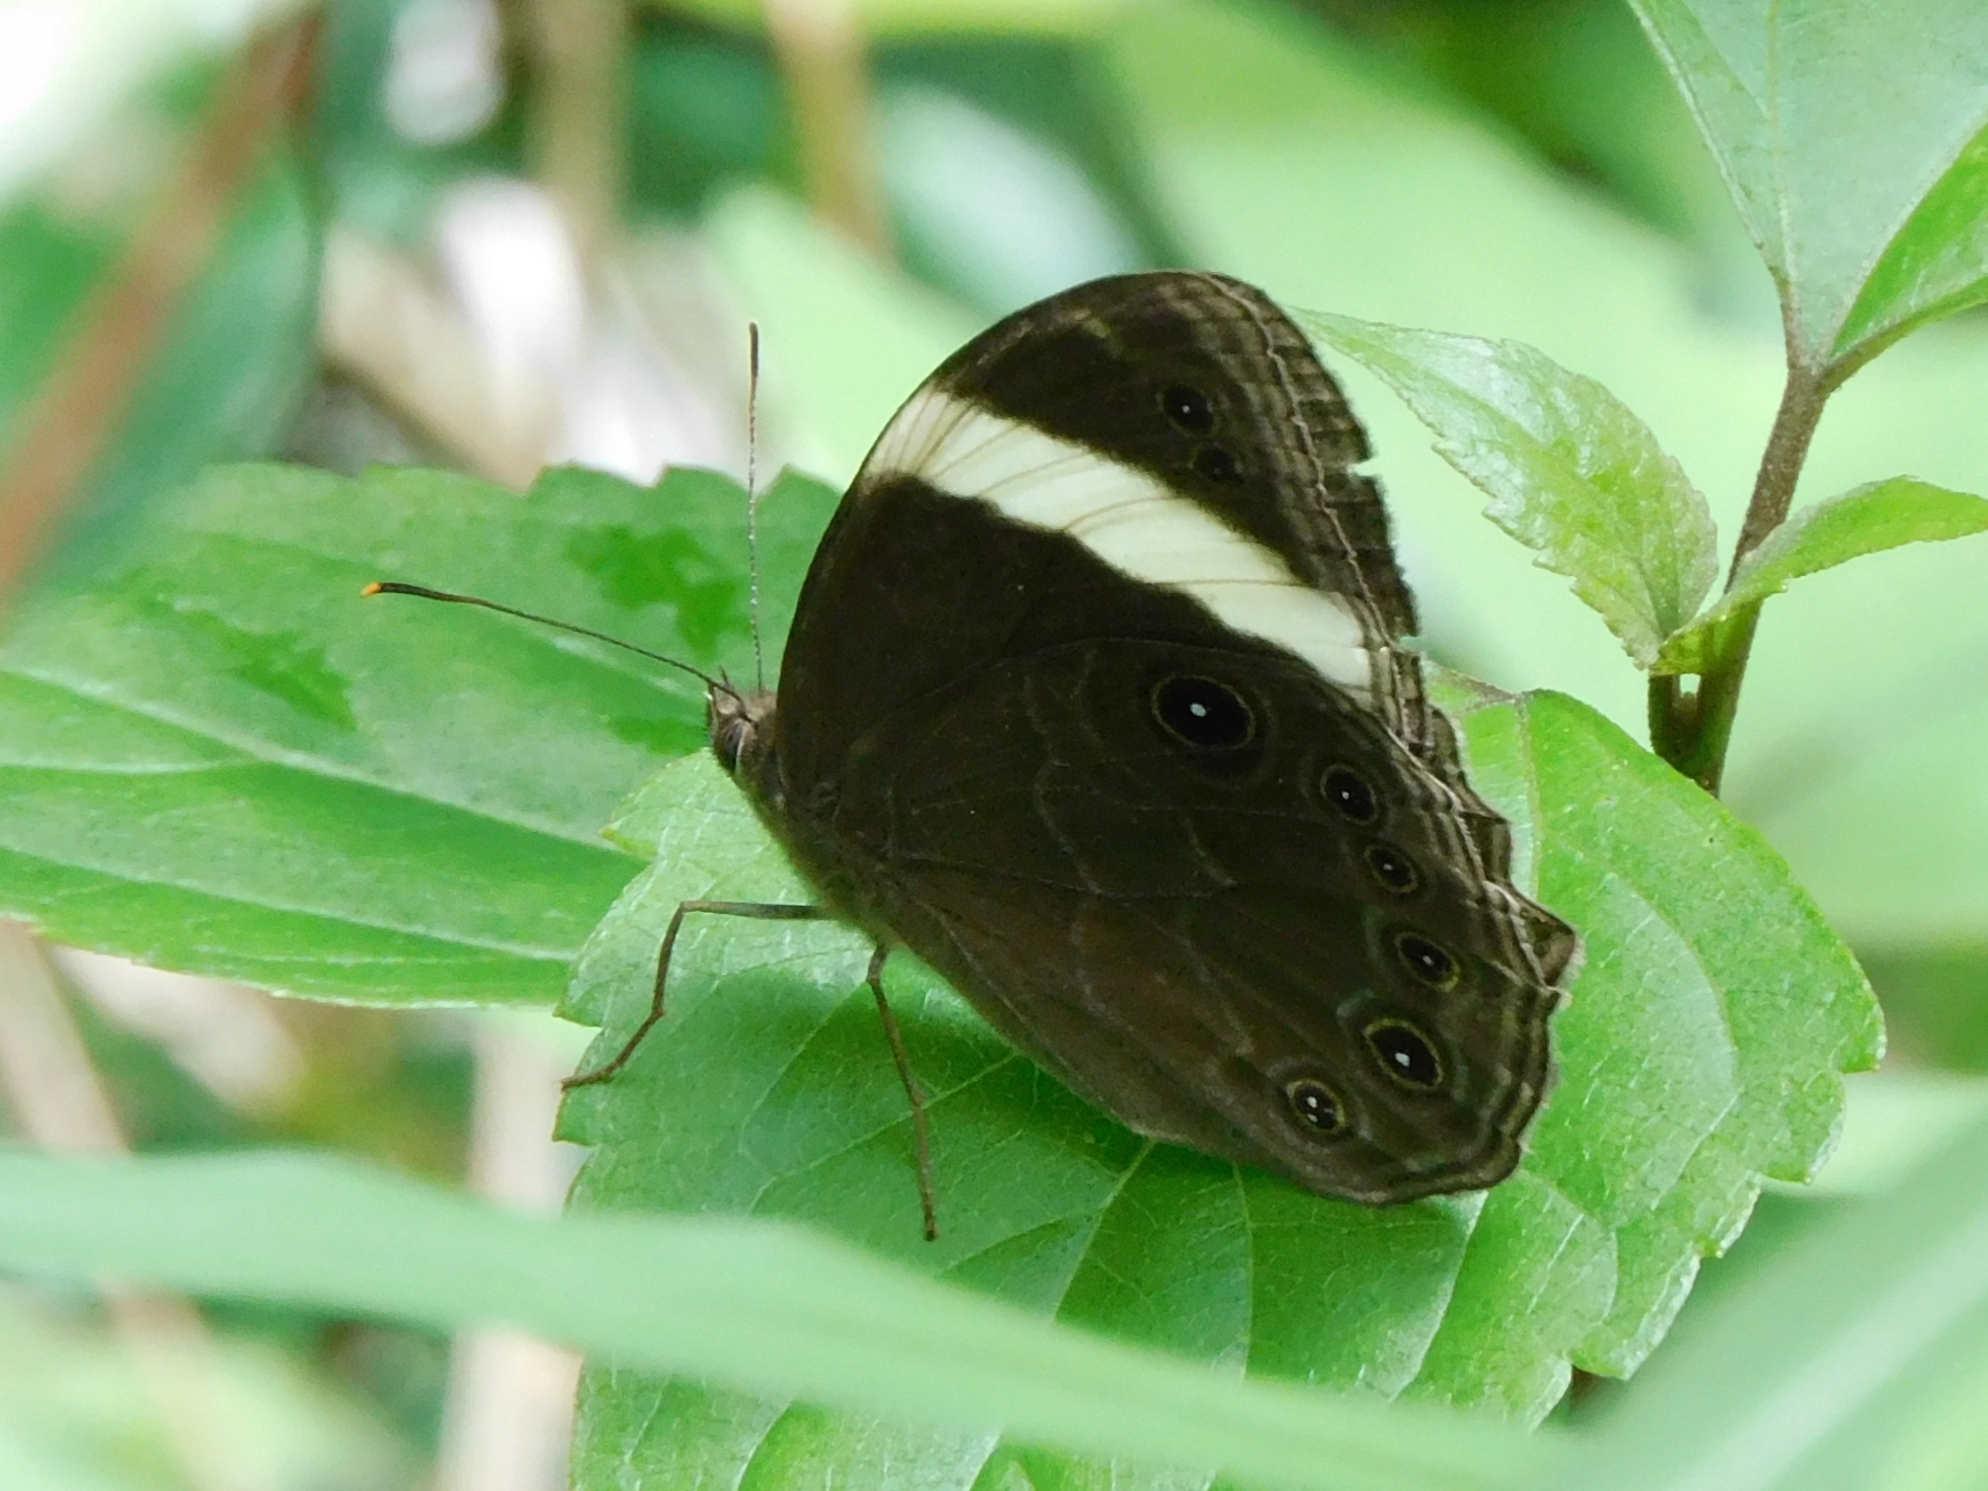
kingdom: Animalia
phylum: Arthropoda
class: Insecta
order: Lepidoptera
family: Nymphalidae
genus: Lethe
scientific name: Lethe verma
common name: Straight-banded treebrown
